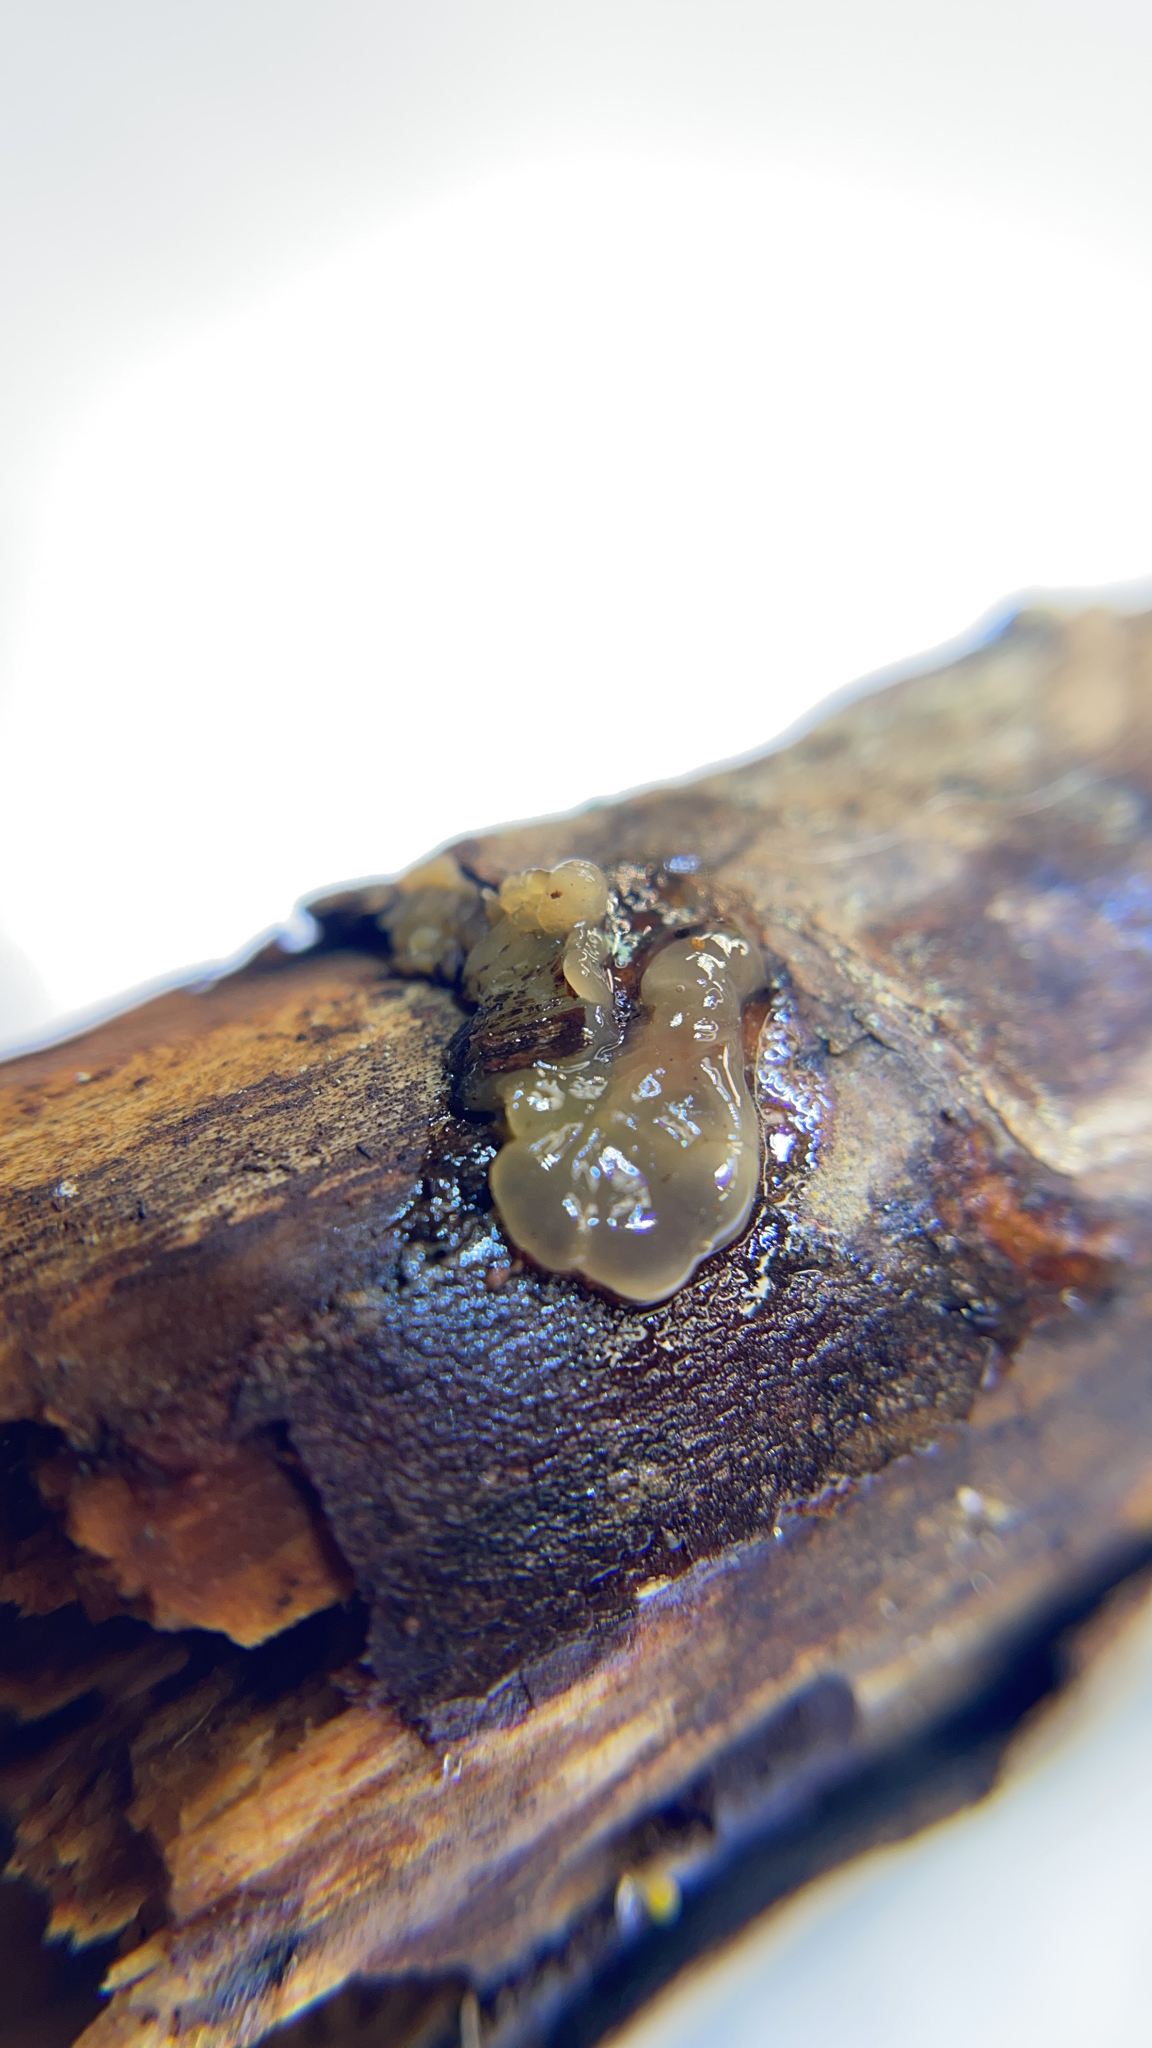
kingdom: Fungi
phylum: Basidiomycota
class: Agaricomycetes
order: Auriculariales
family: Hyaloriaceae
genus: Myxarium
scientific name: Myxarium nucleatum
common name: Crystal brain fungus
